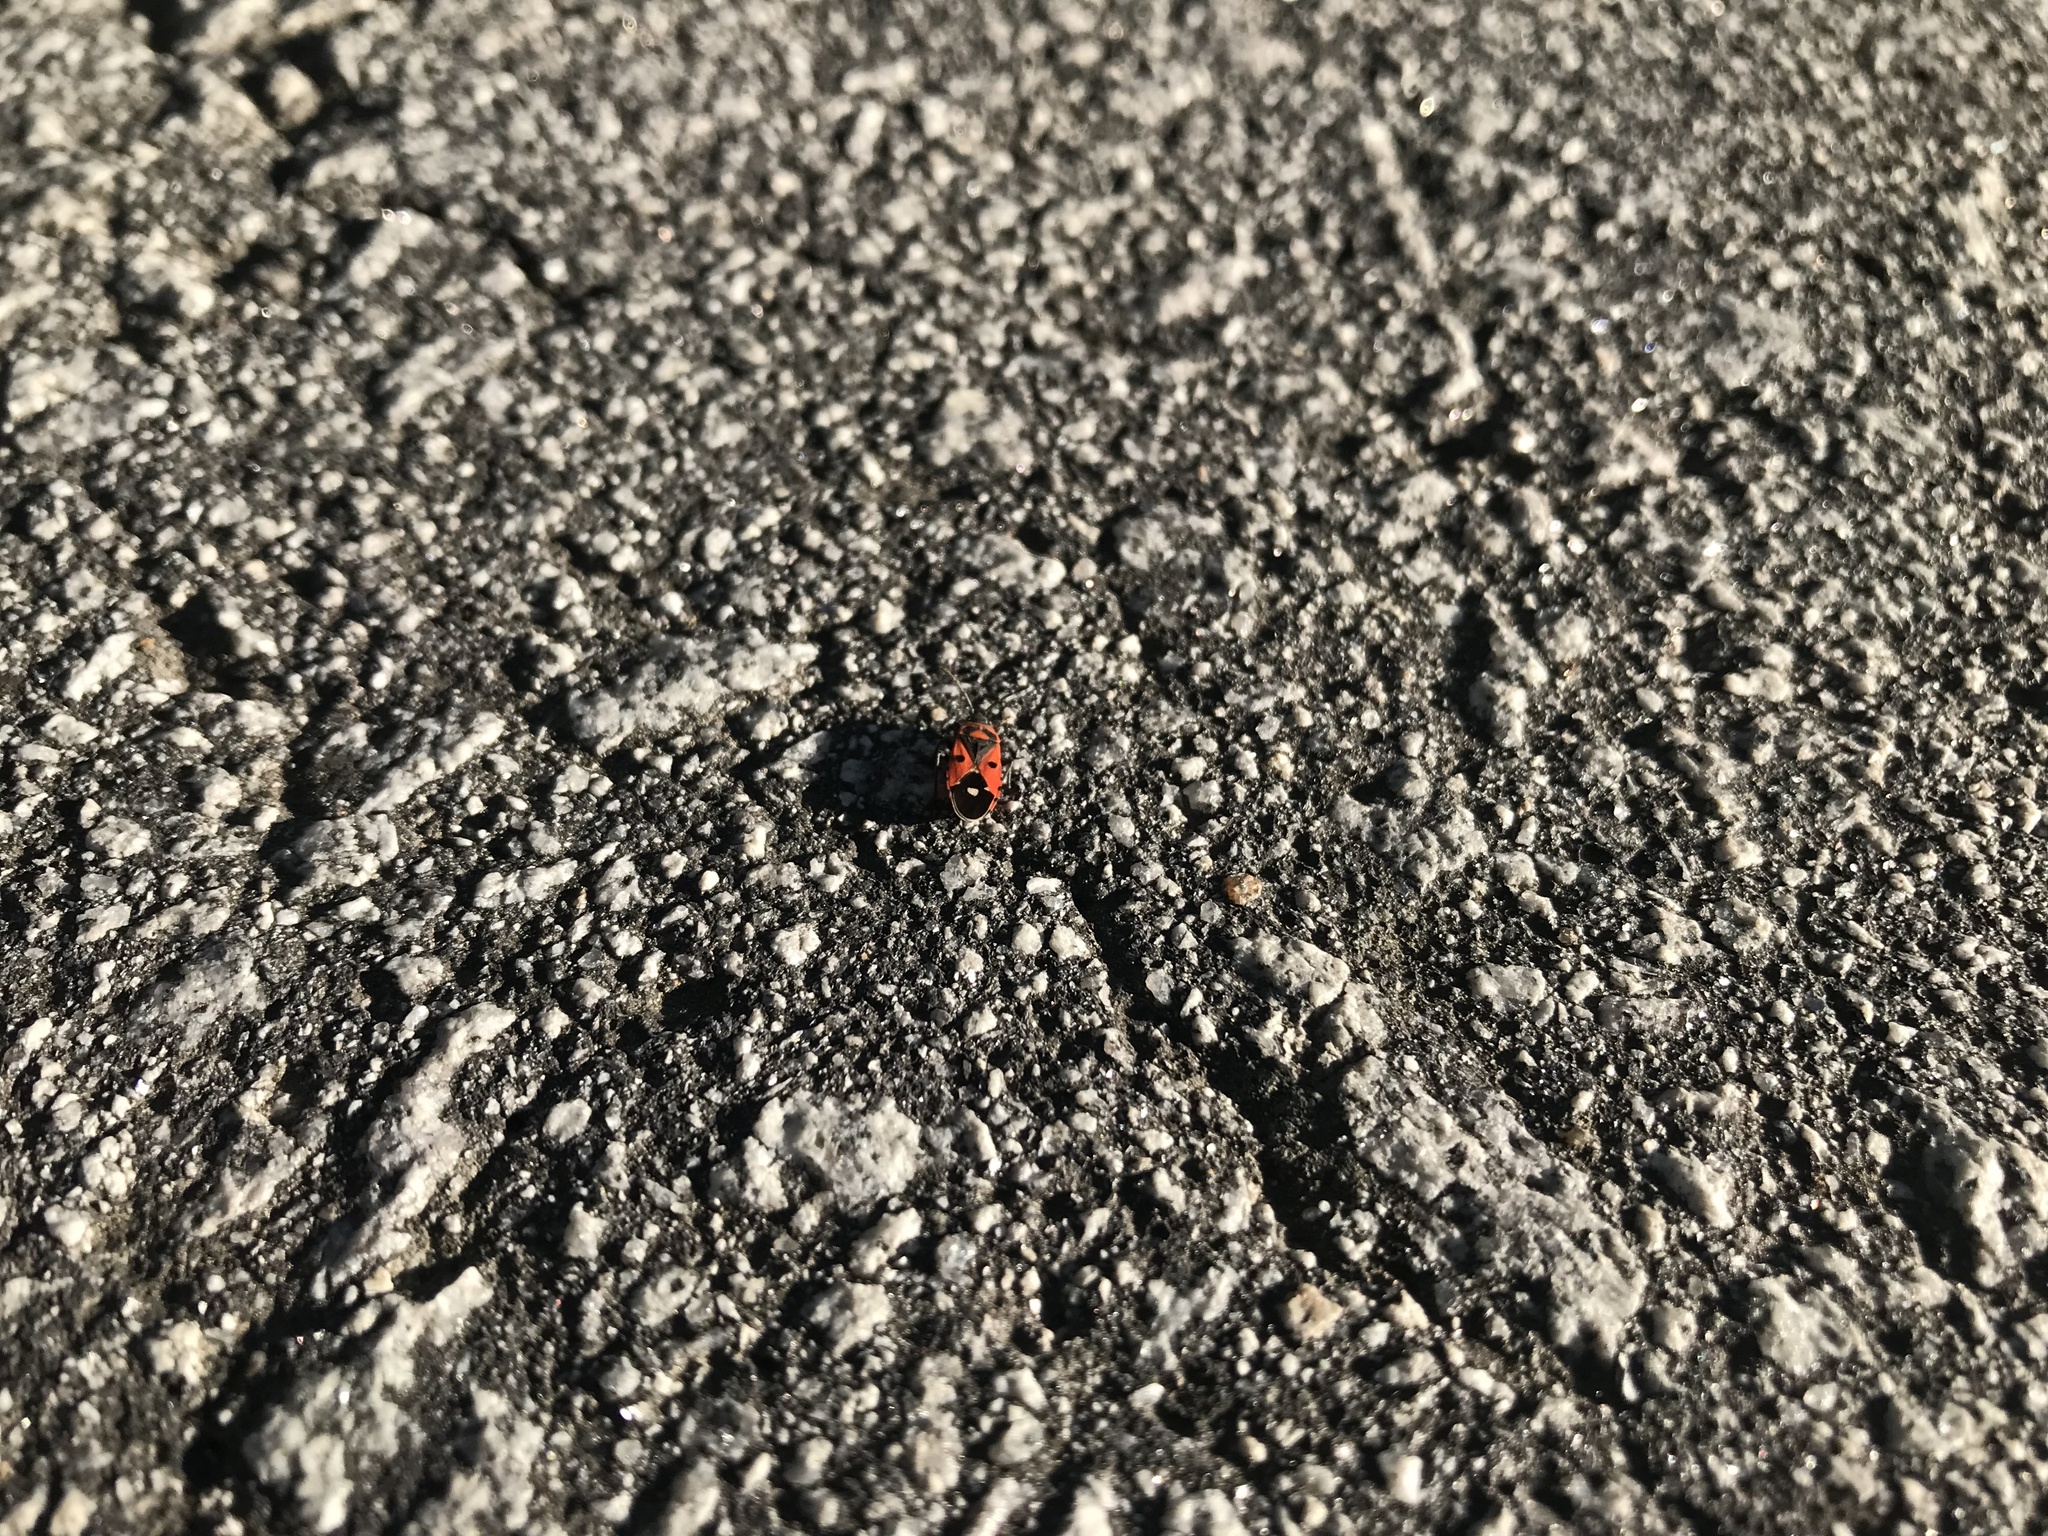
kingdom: Animalia
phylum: Arthropoda
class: Insecta
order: Hemiptera
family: Lygaeidae
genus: Melanocoryphus
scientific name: Melanocoryphus albomaculatus
